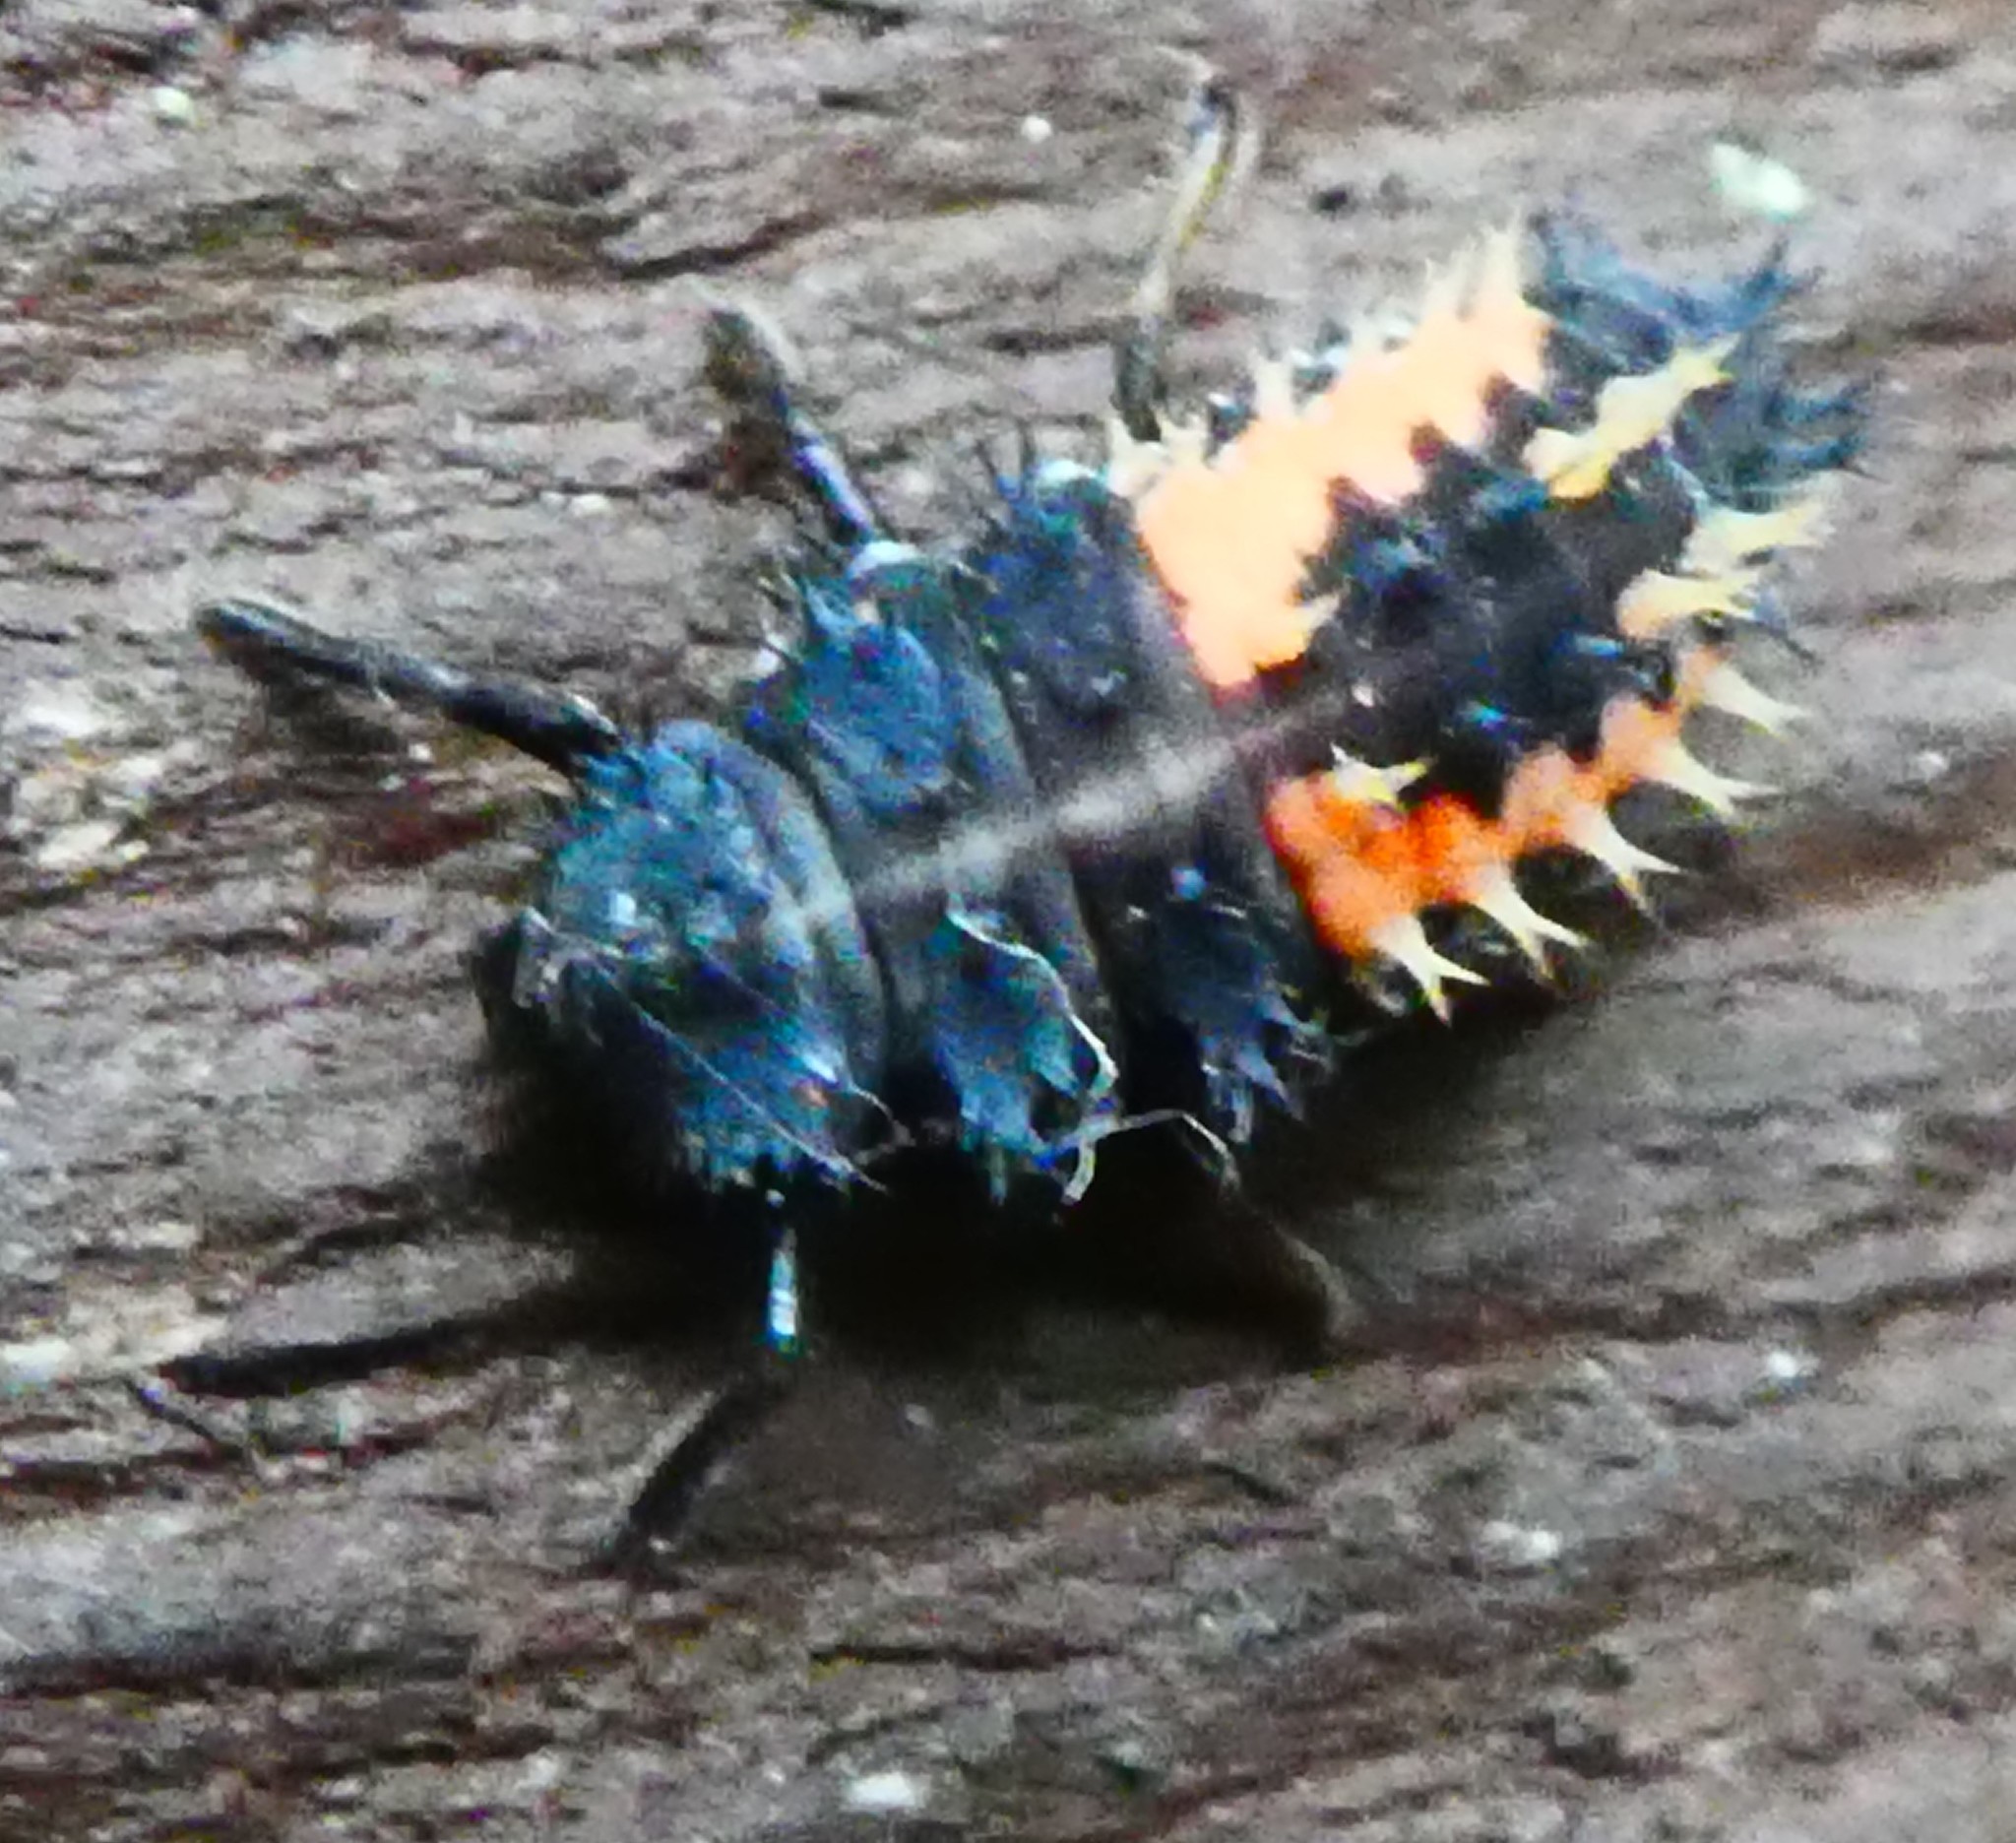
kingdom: Animalia
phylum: Arthropoda
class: Insecta
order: Coleoptera
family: Coccinellidae
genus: Harmonia
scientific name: Harmonia axyridis
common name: Harlequin ladybird
